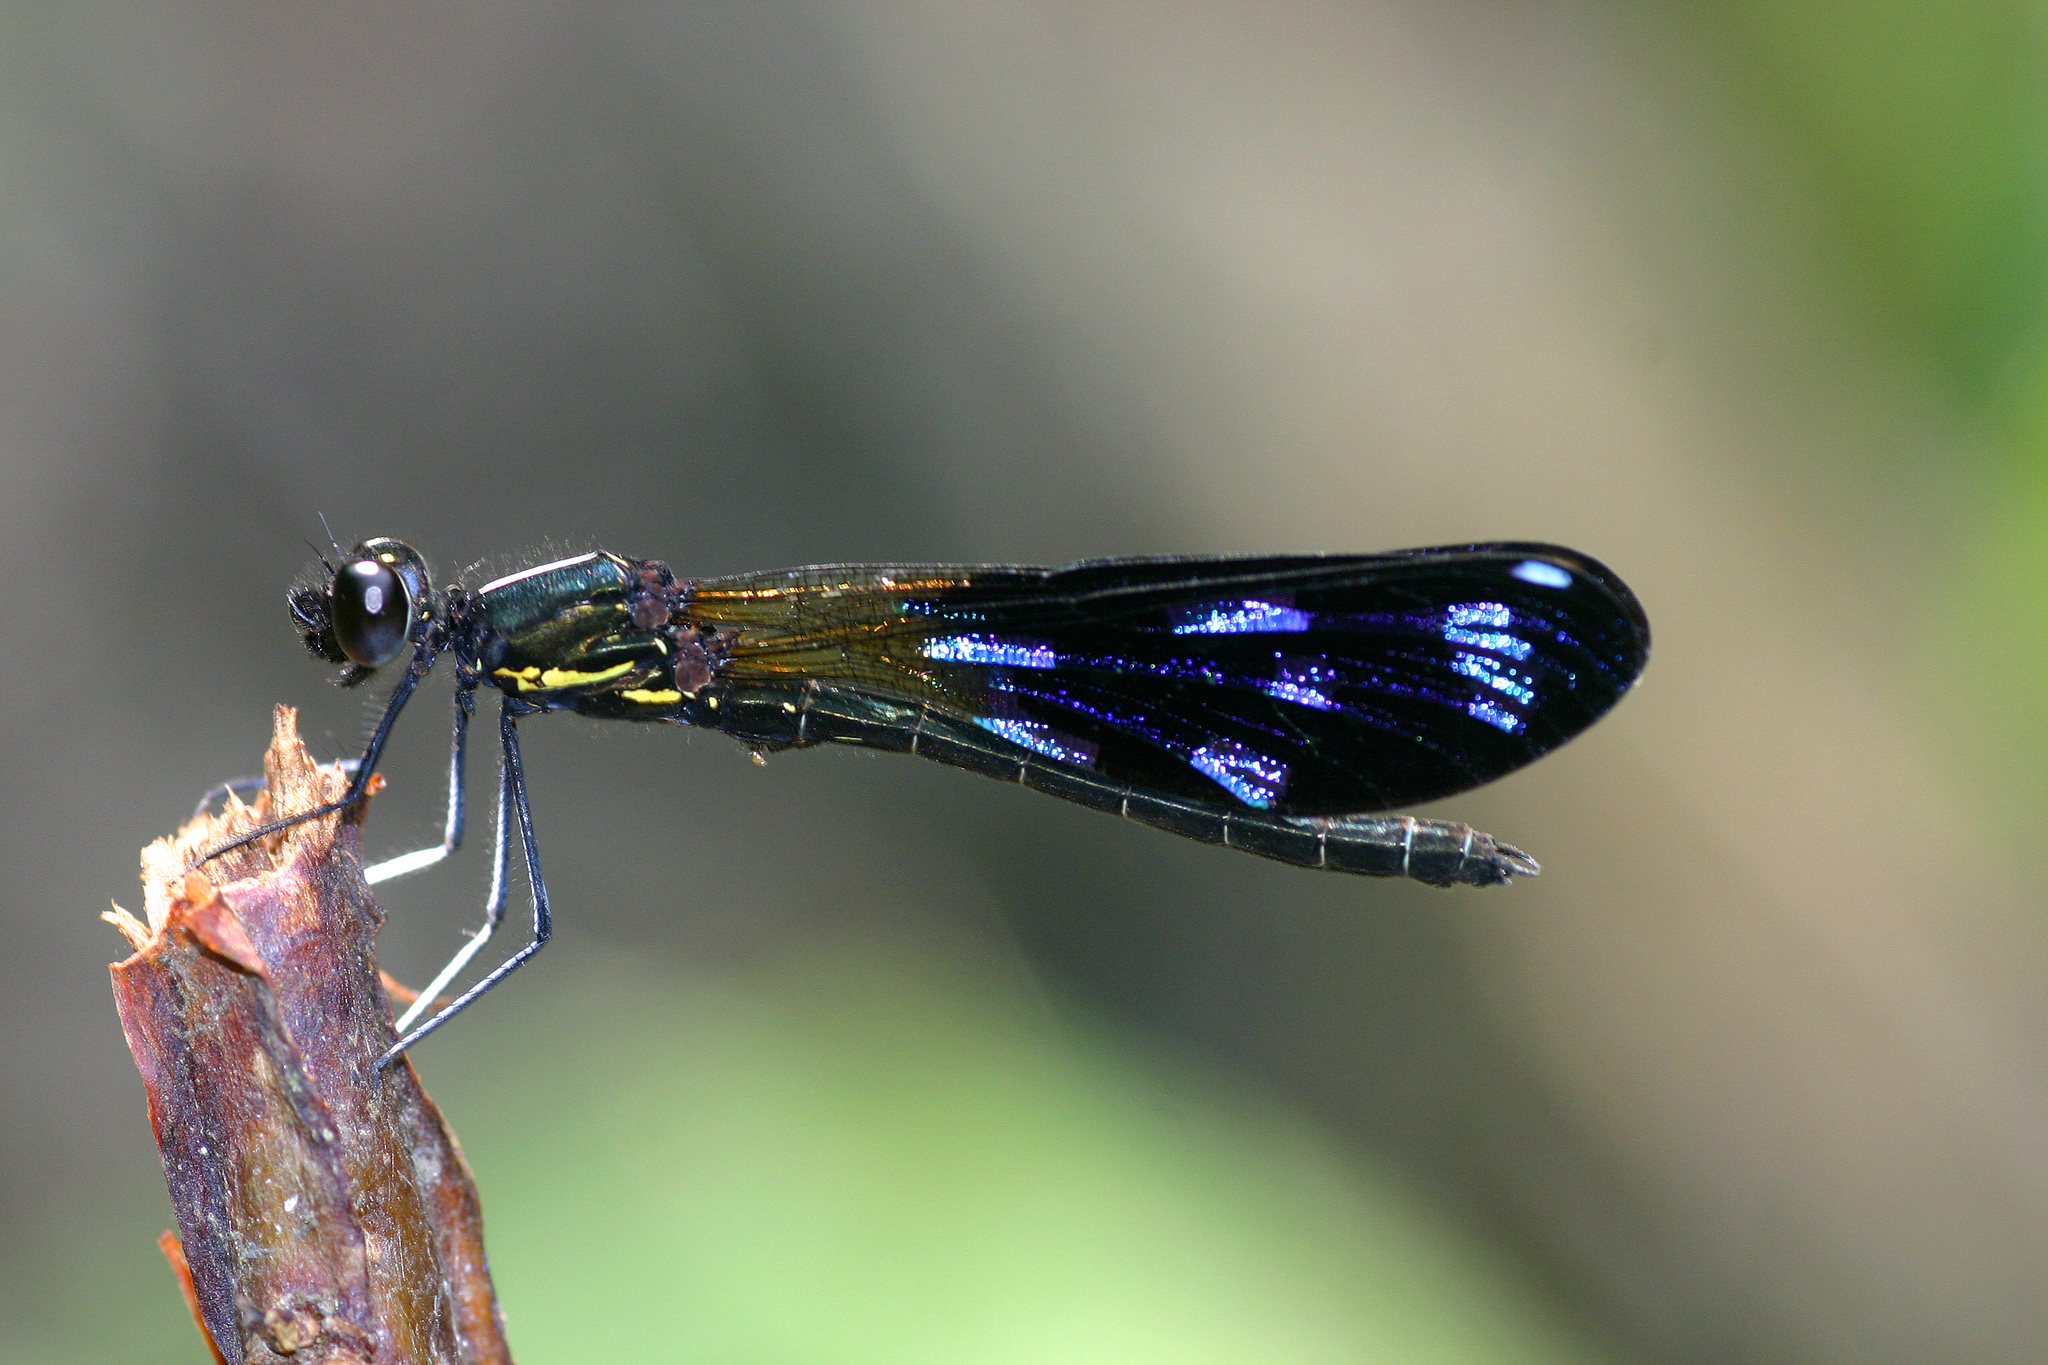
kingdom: Animalia
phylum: Arthropoda
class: Insecta
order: Odonata
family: Chlorocyphidae
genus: Aristocypha
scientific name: Aristocypha fenestrella
